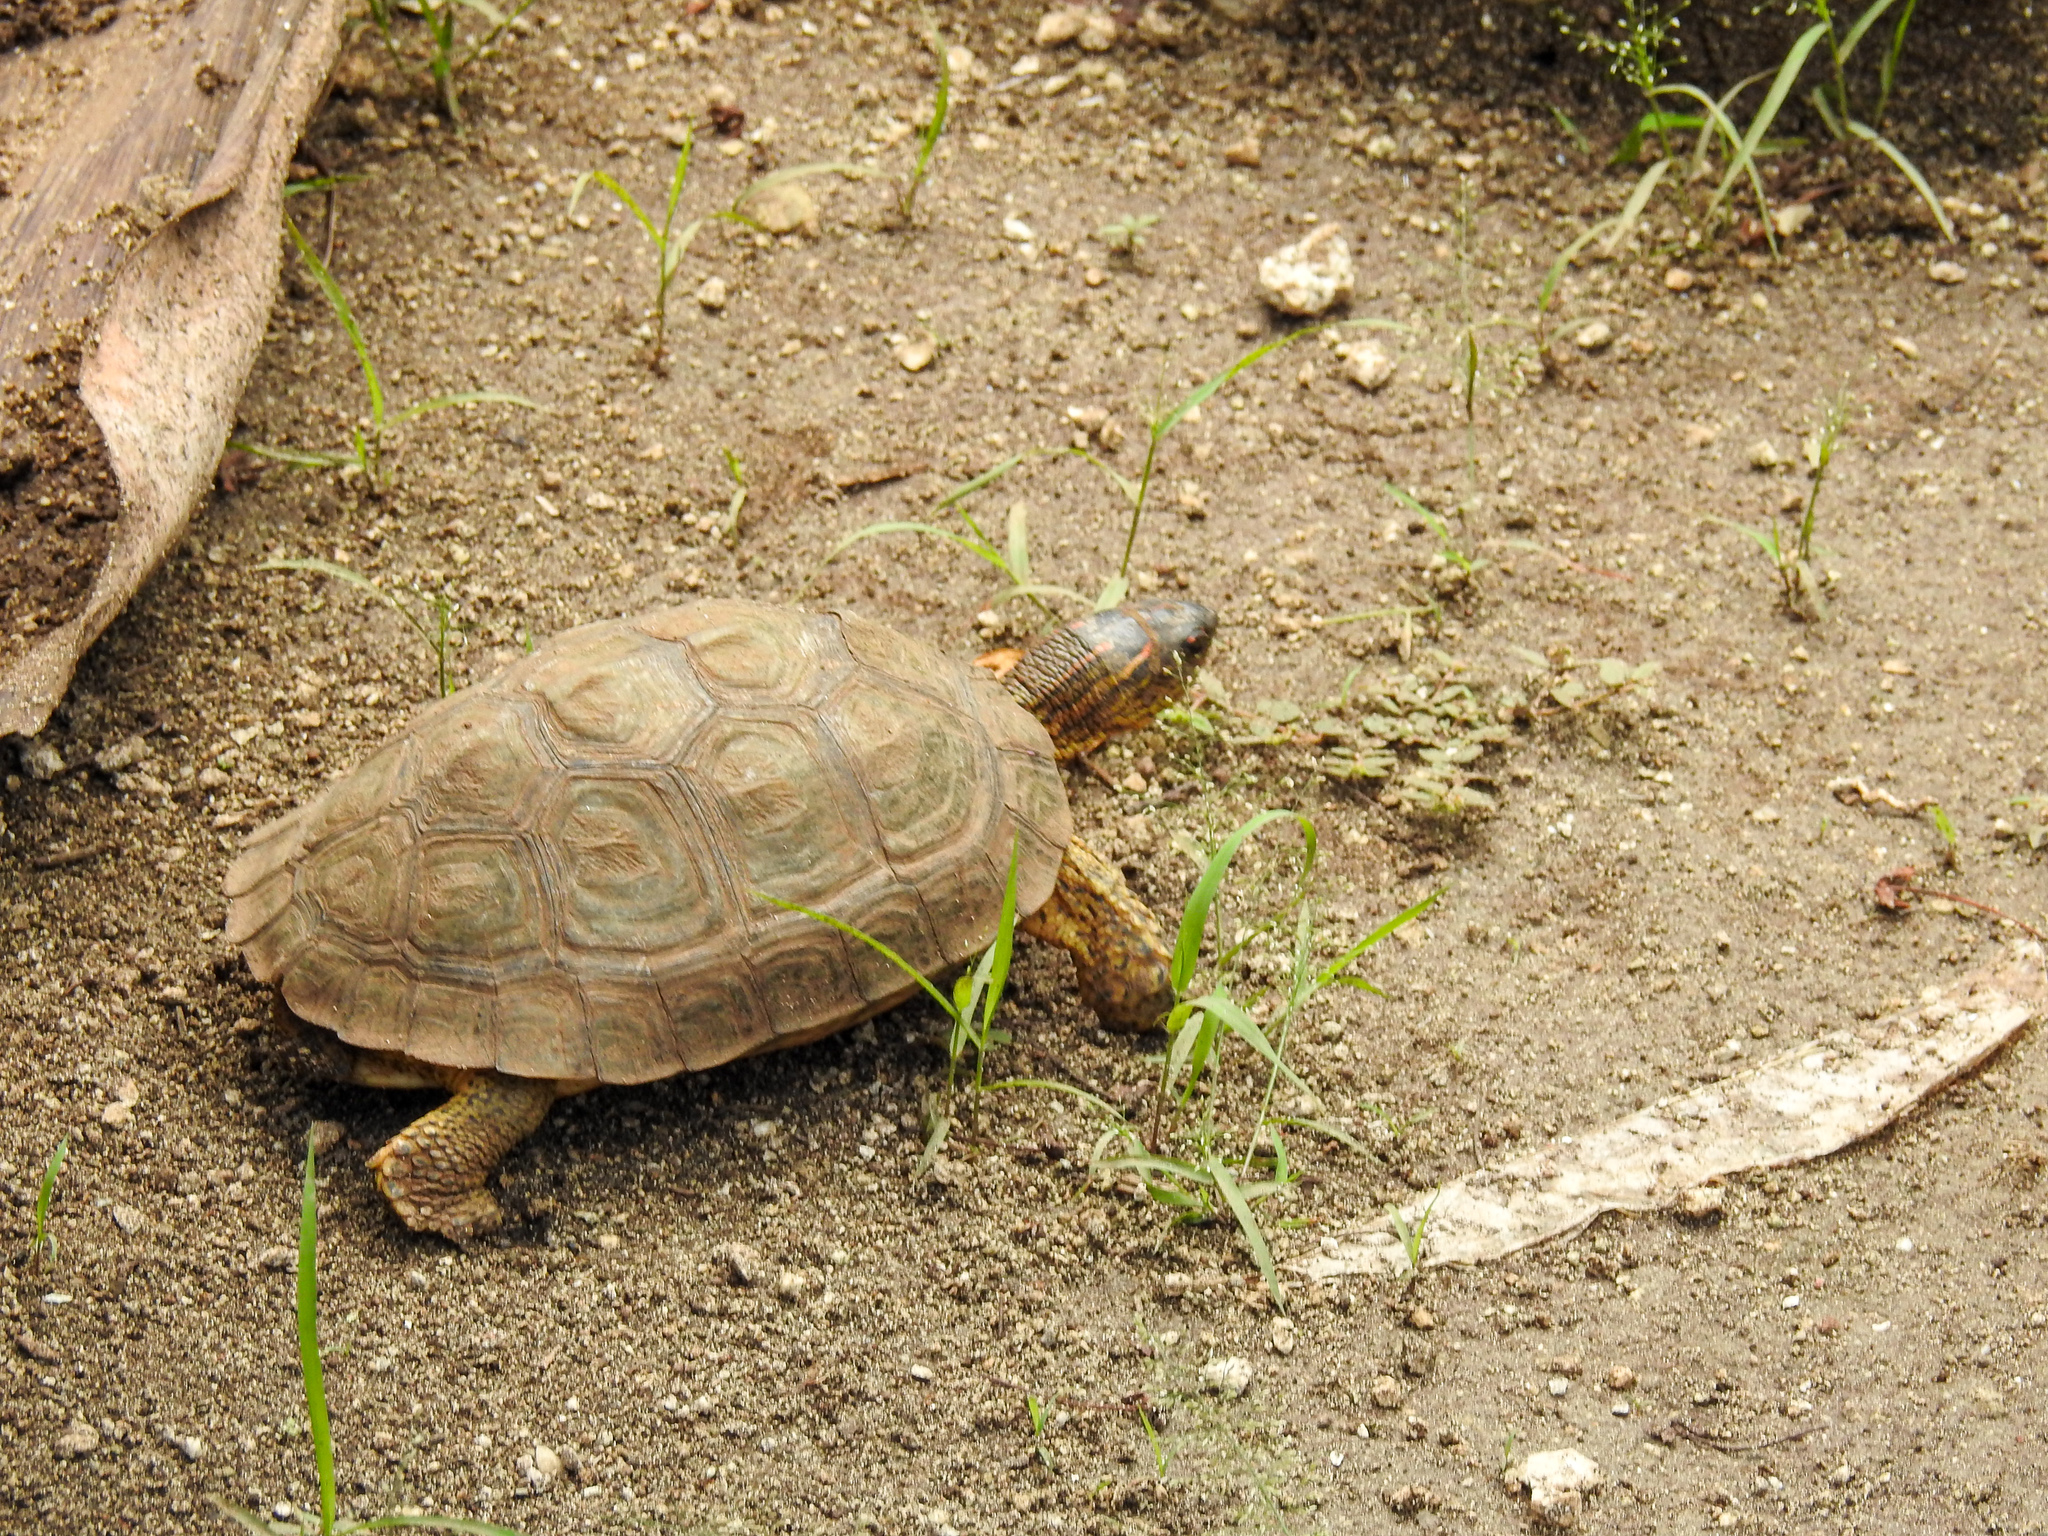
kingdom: Animalia
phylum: Chordata
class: Testudines
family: Geoemydidae
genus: Rhinoclemmys
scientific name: Rhinoclemmys areolata
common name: Furrowed wood turtle
